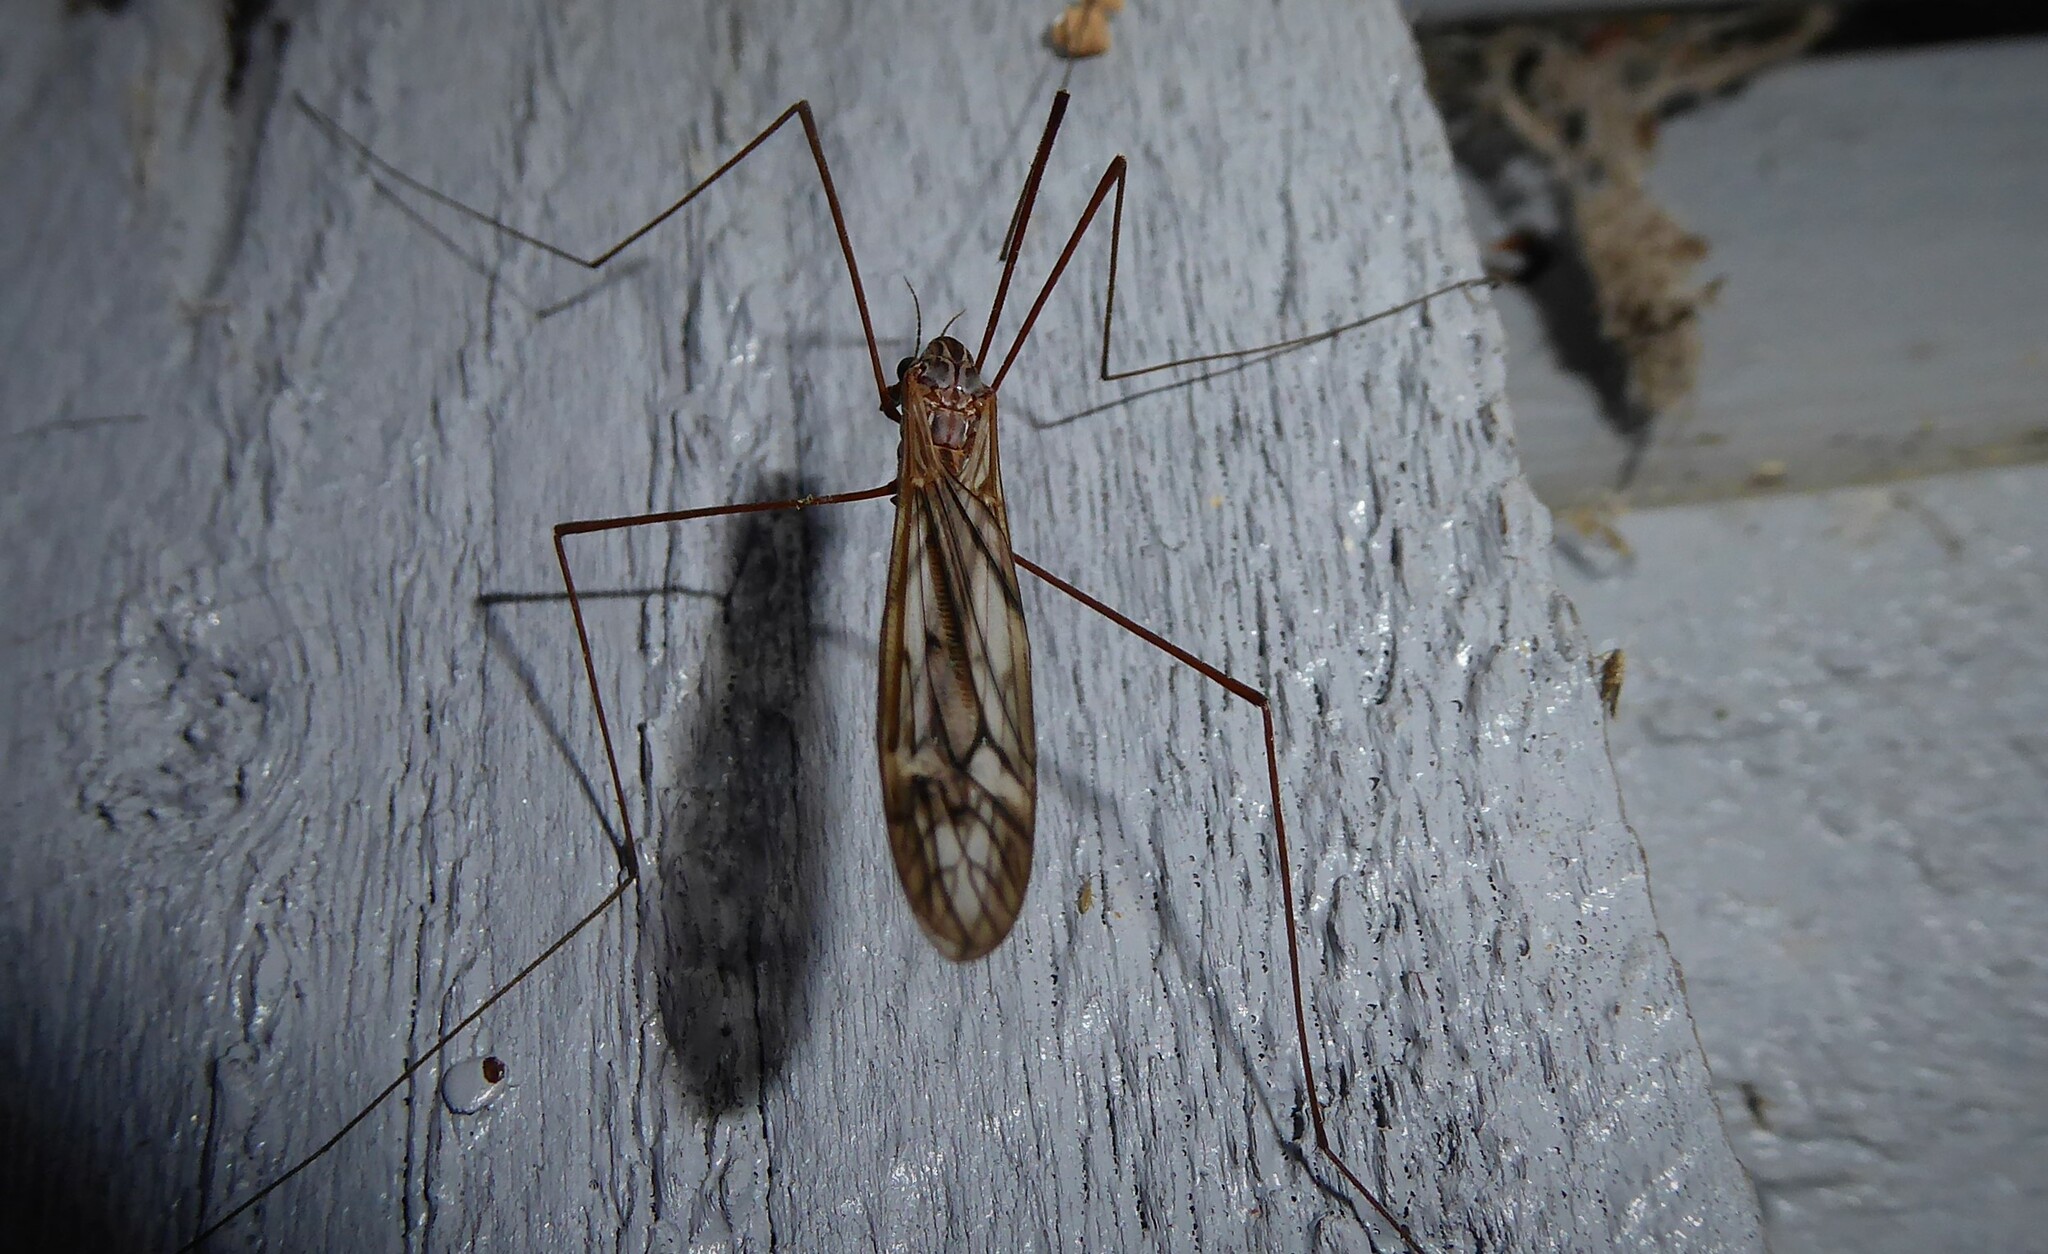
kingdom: Animalia
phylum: Arthropoda
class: Insecta
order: Diptera
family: Tipulidae
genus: Zelandotipula
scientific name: Zelandotipula novarae
